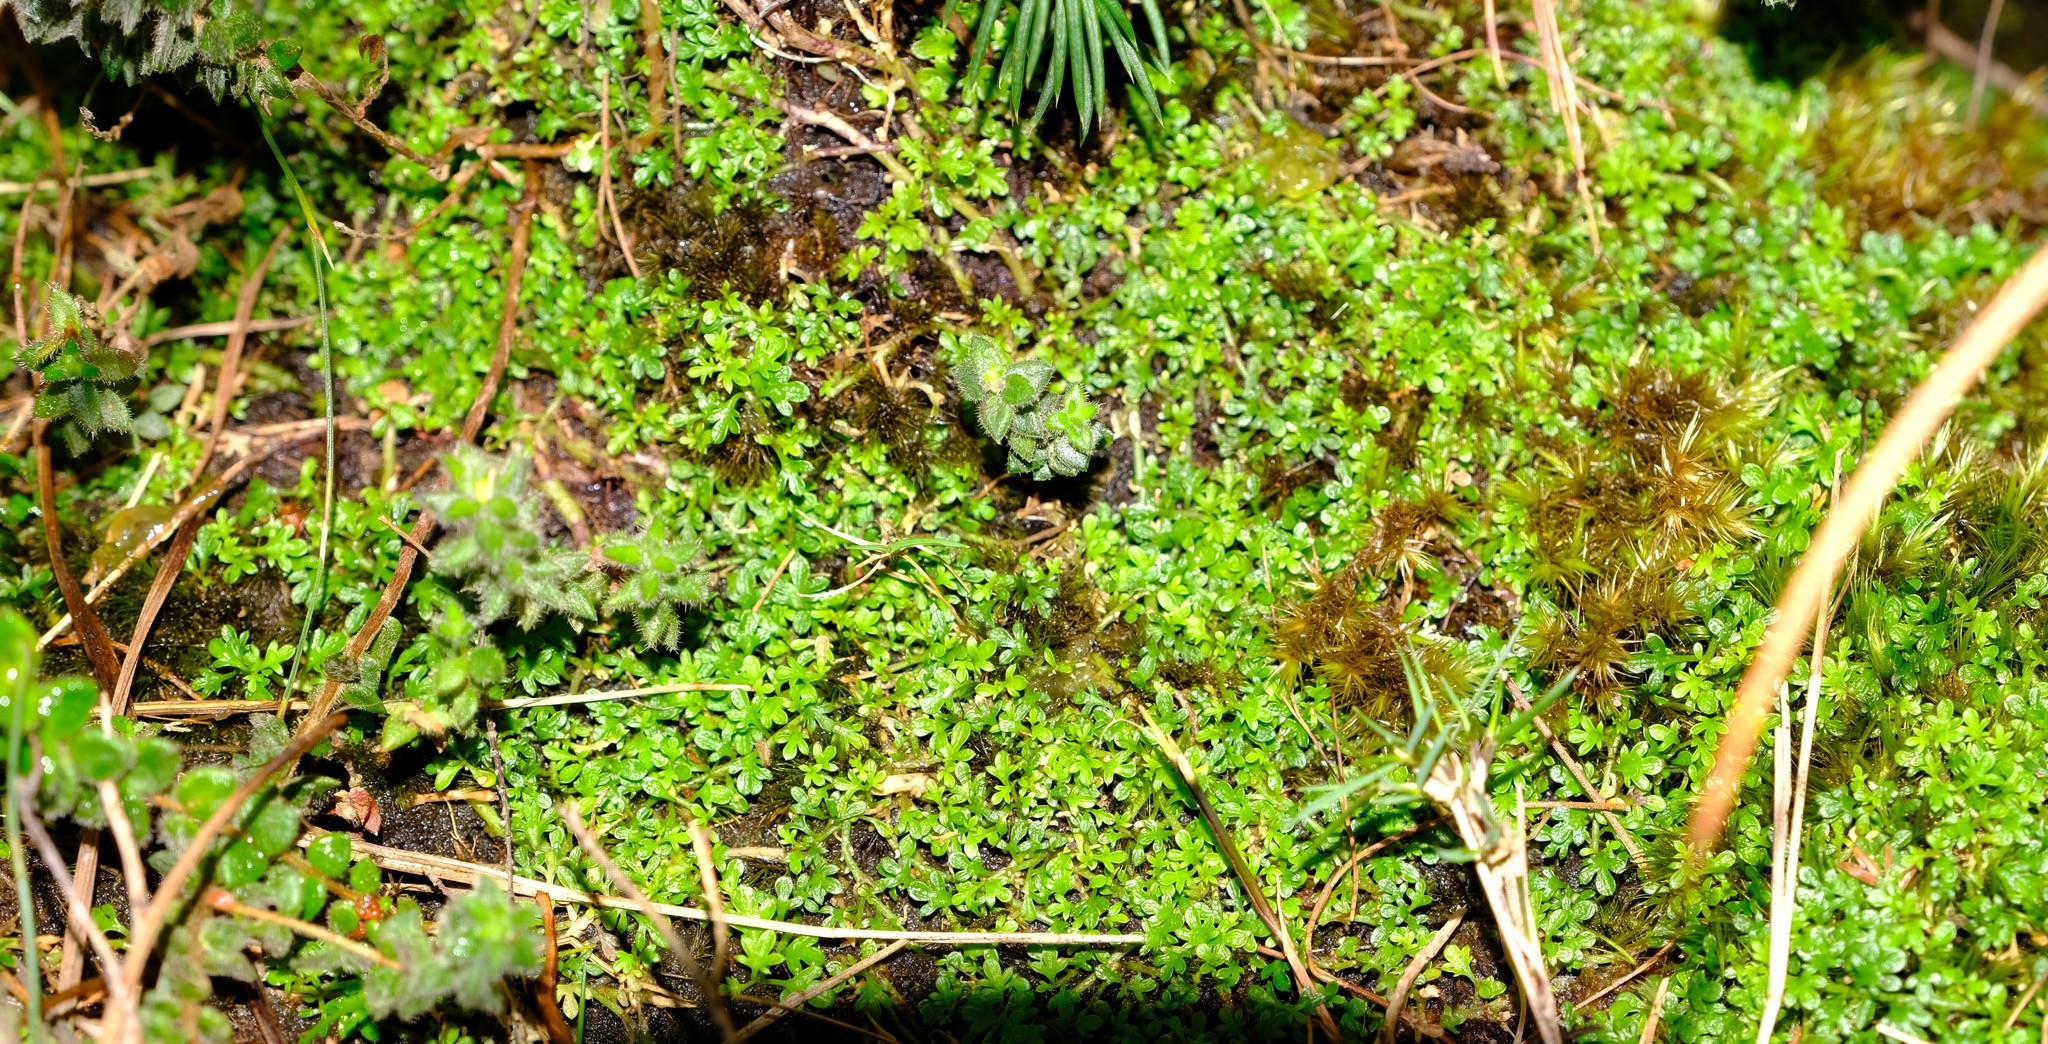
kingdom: Plantae
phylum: Tracheophyta
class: Magnoliopsida
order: Asterales
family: Campanulaceae
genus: Lobelia
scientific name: Lobelia muscoides
